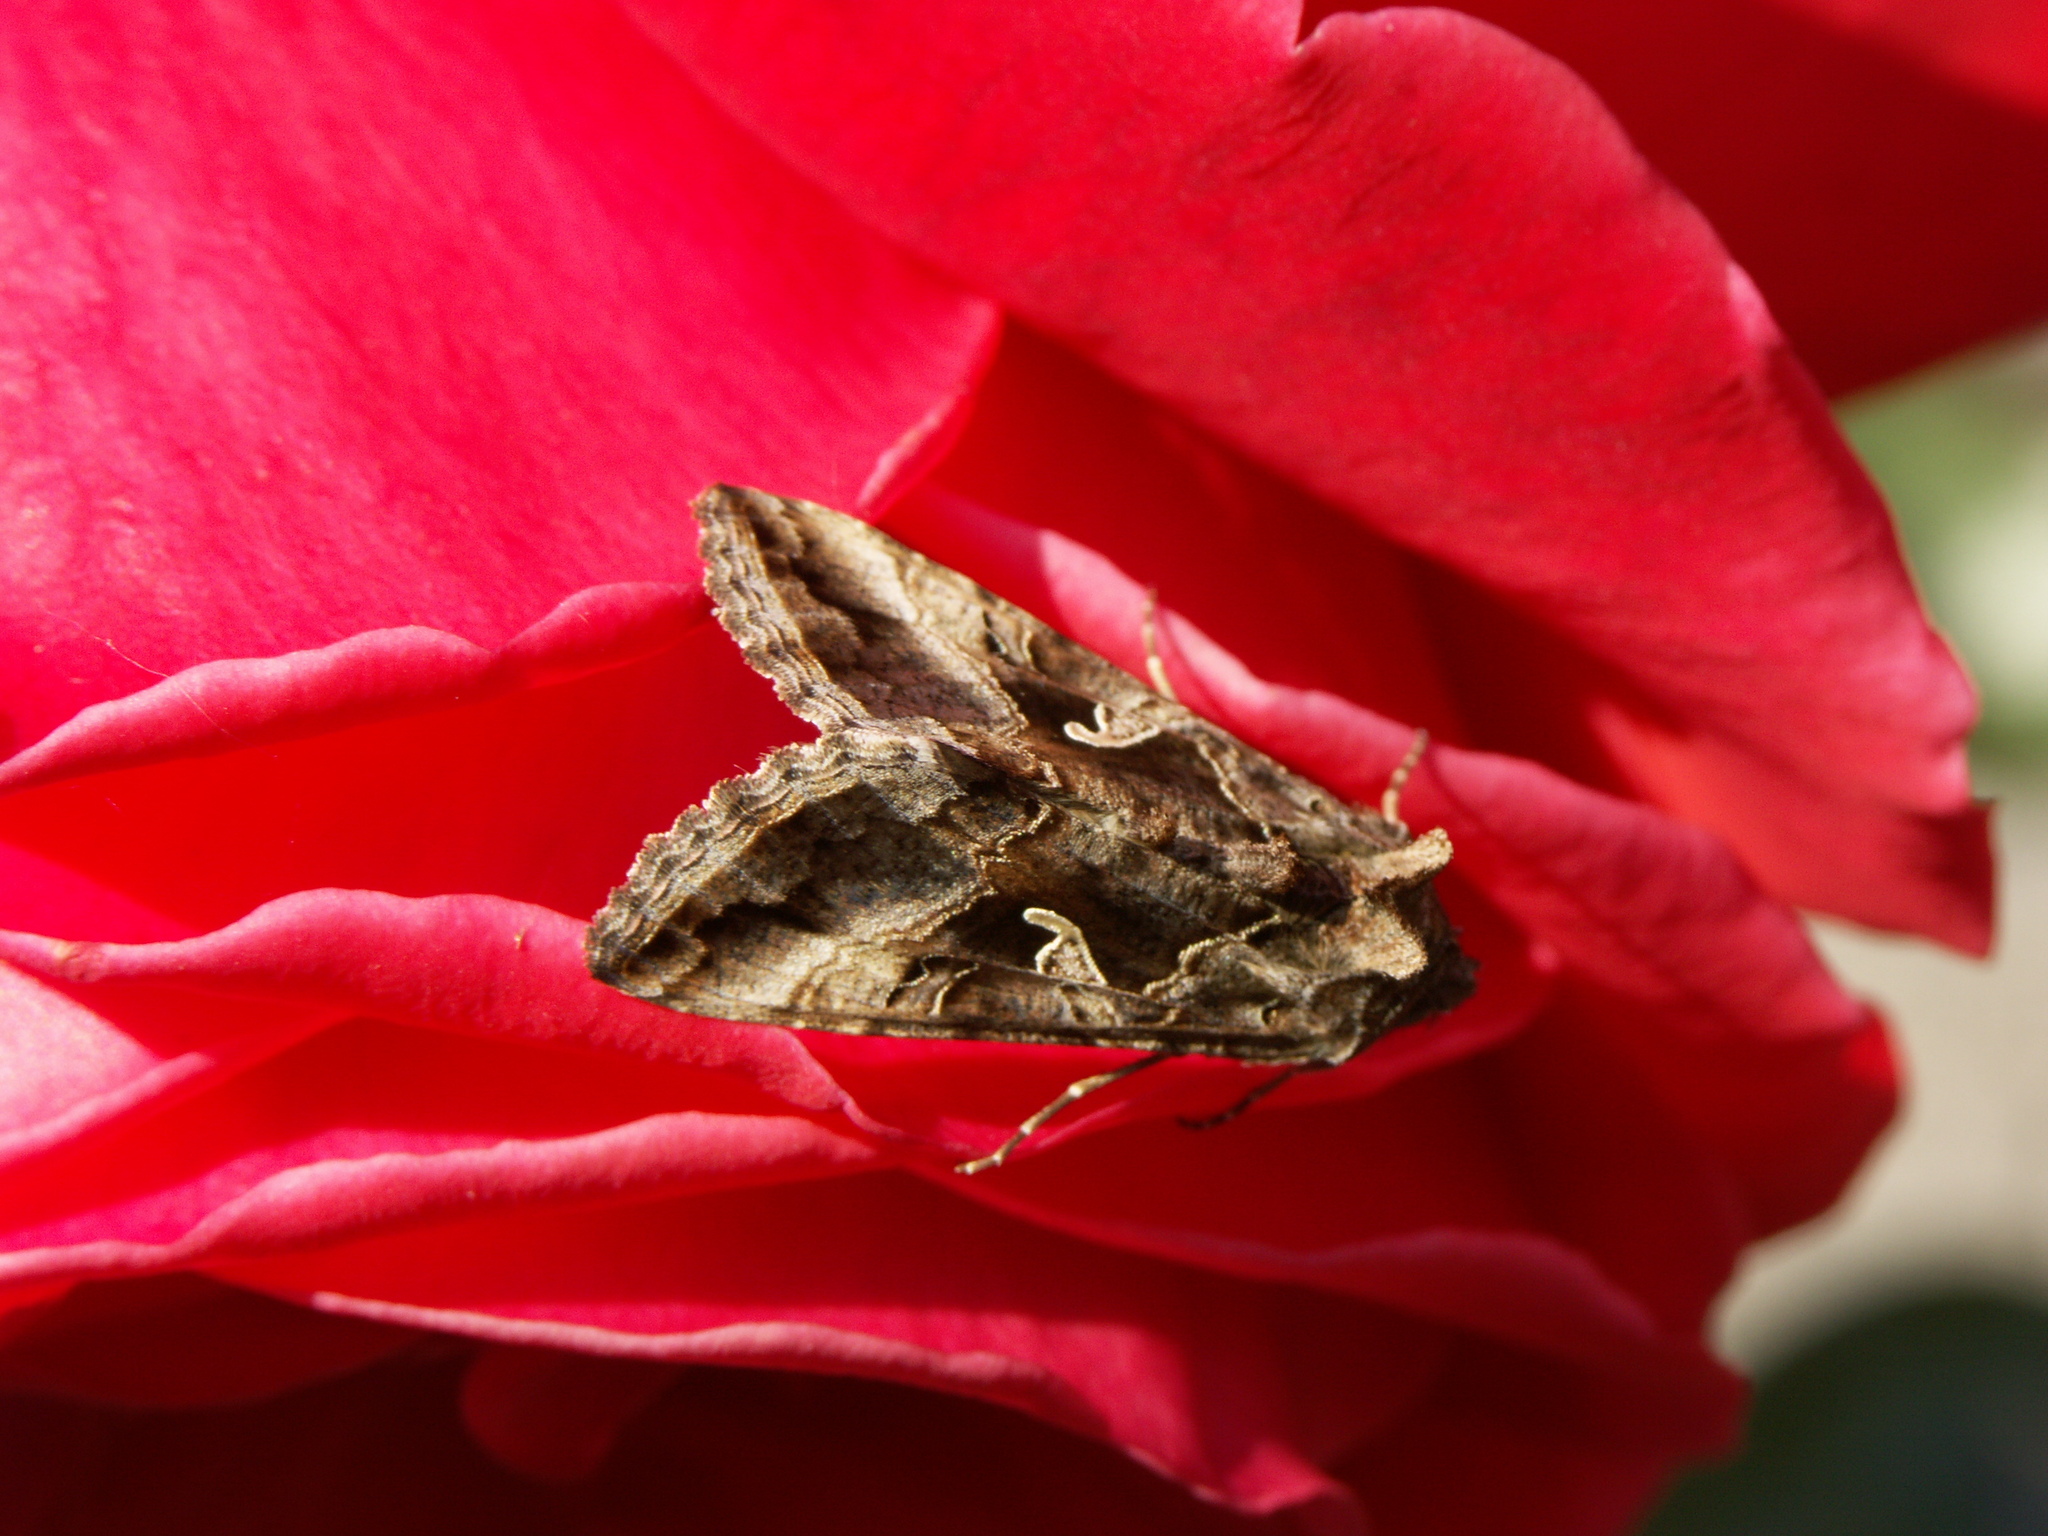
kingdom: Animalia
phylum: Arthropoda
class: Insecta
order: Lepidoptera
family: Noctuidae
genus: Autographa
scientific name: Autographa gamma
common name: Silver y
